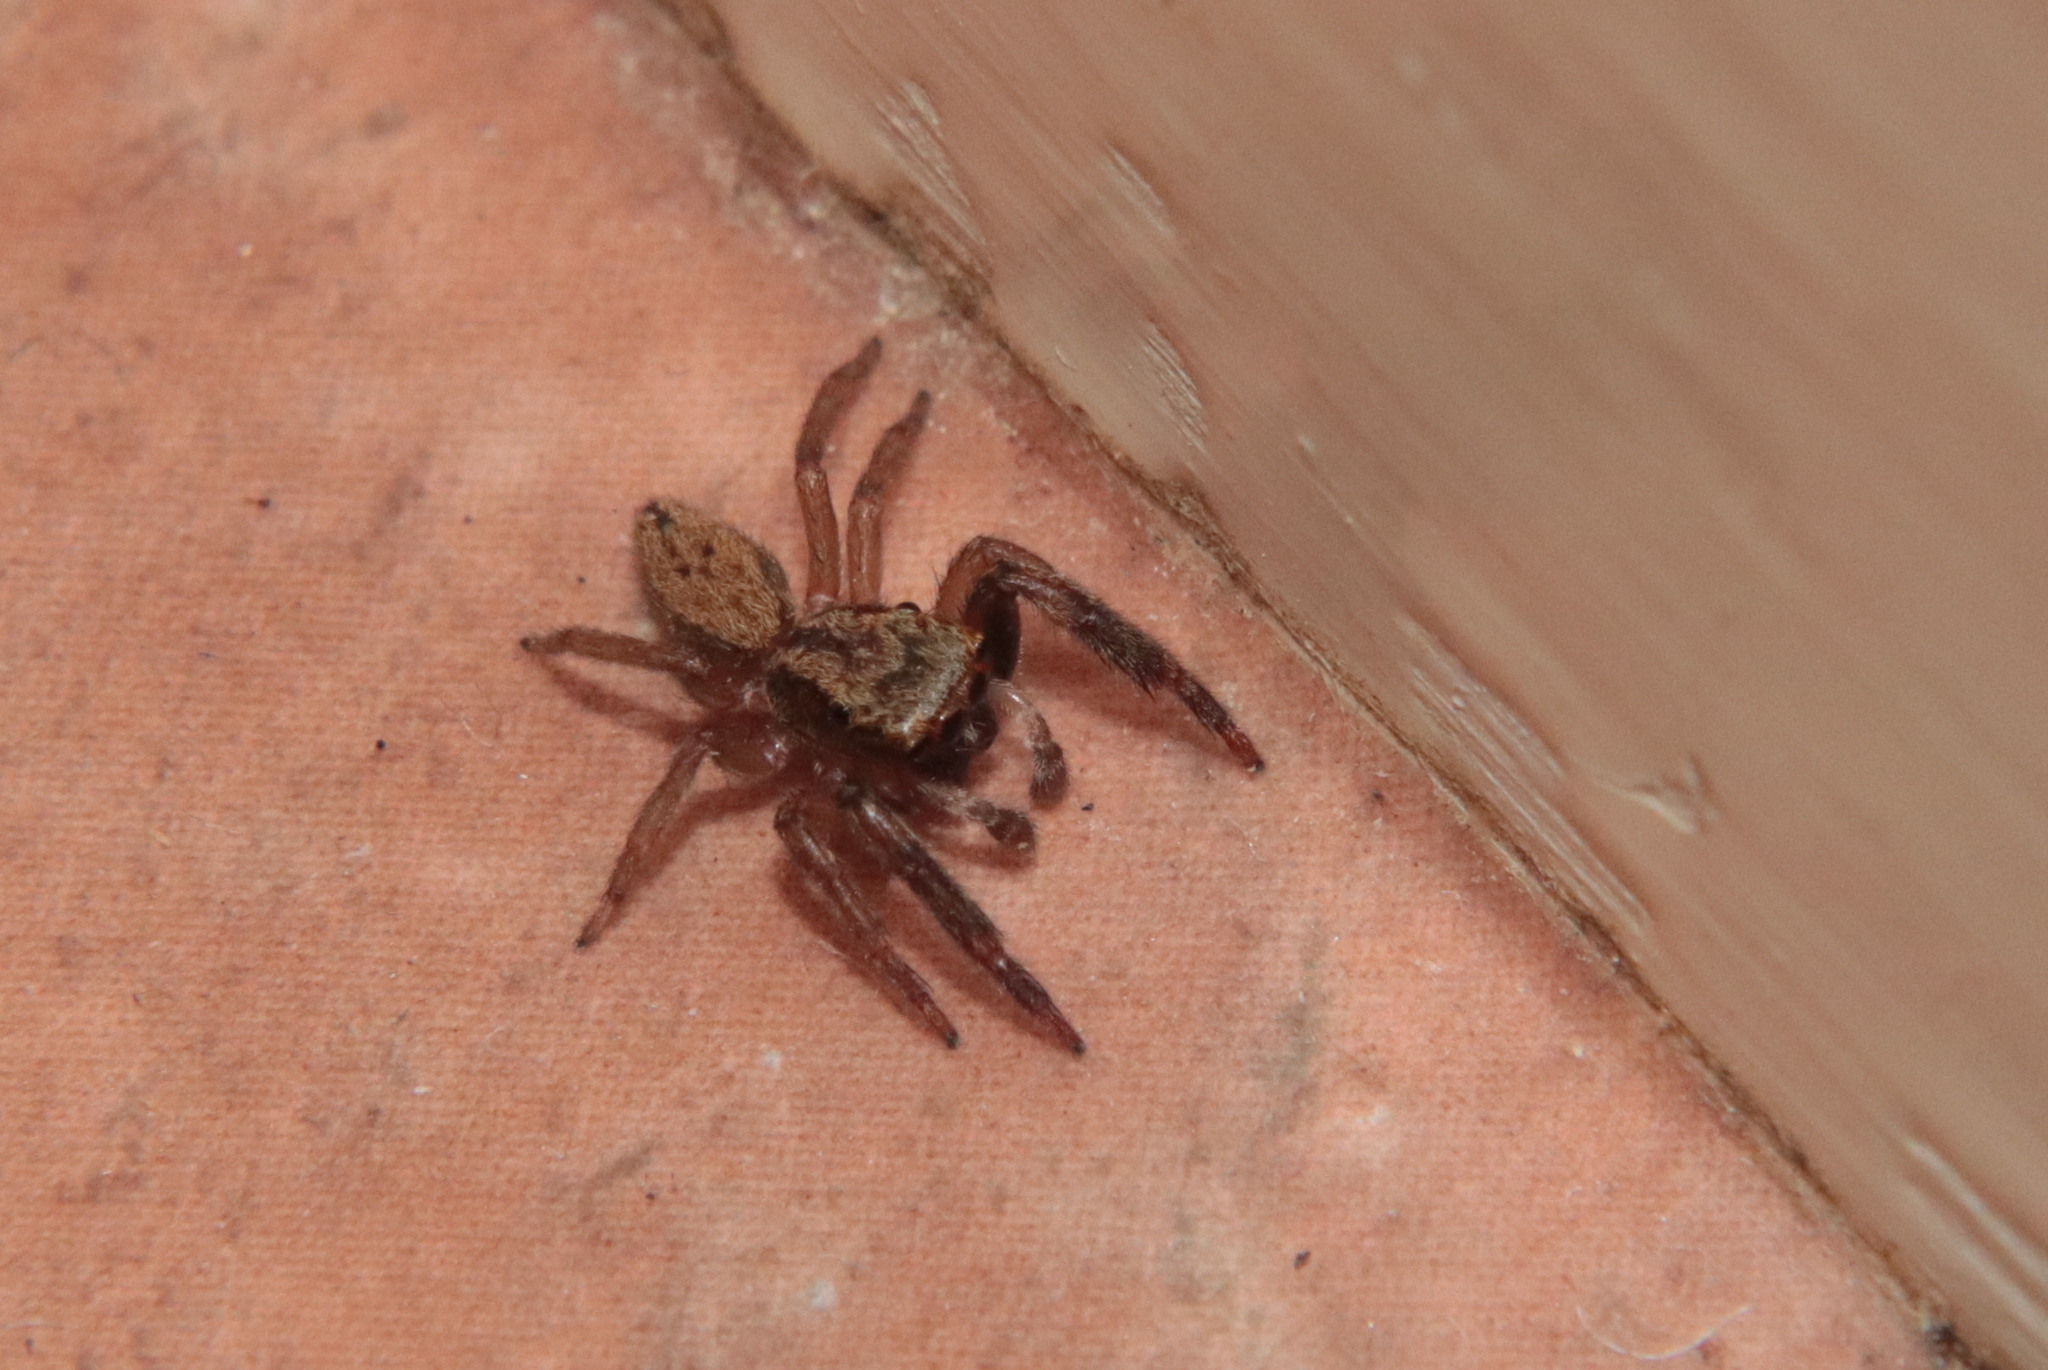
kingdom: Animalia
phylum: Arthropoda
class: Arachnida
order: Araneae
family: Salticidae
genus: Trite
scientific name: Trite auricoma
